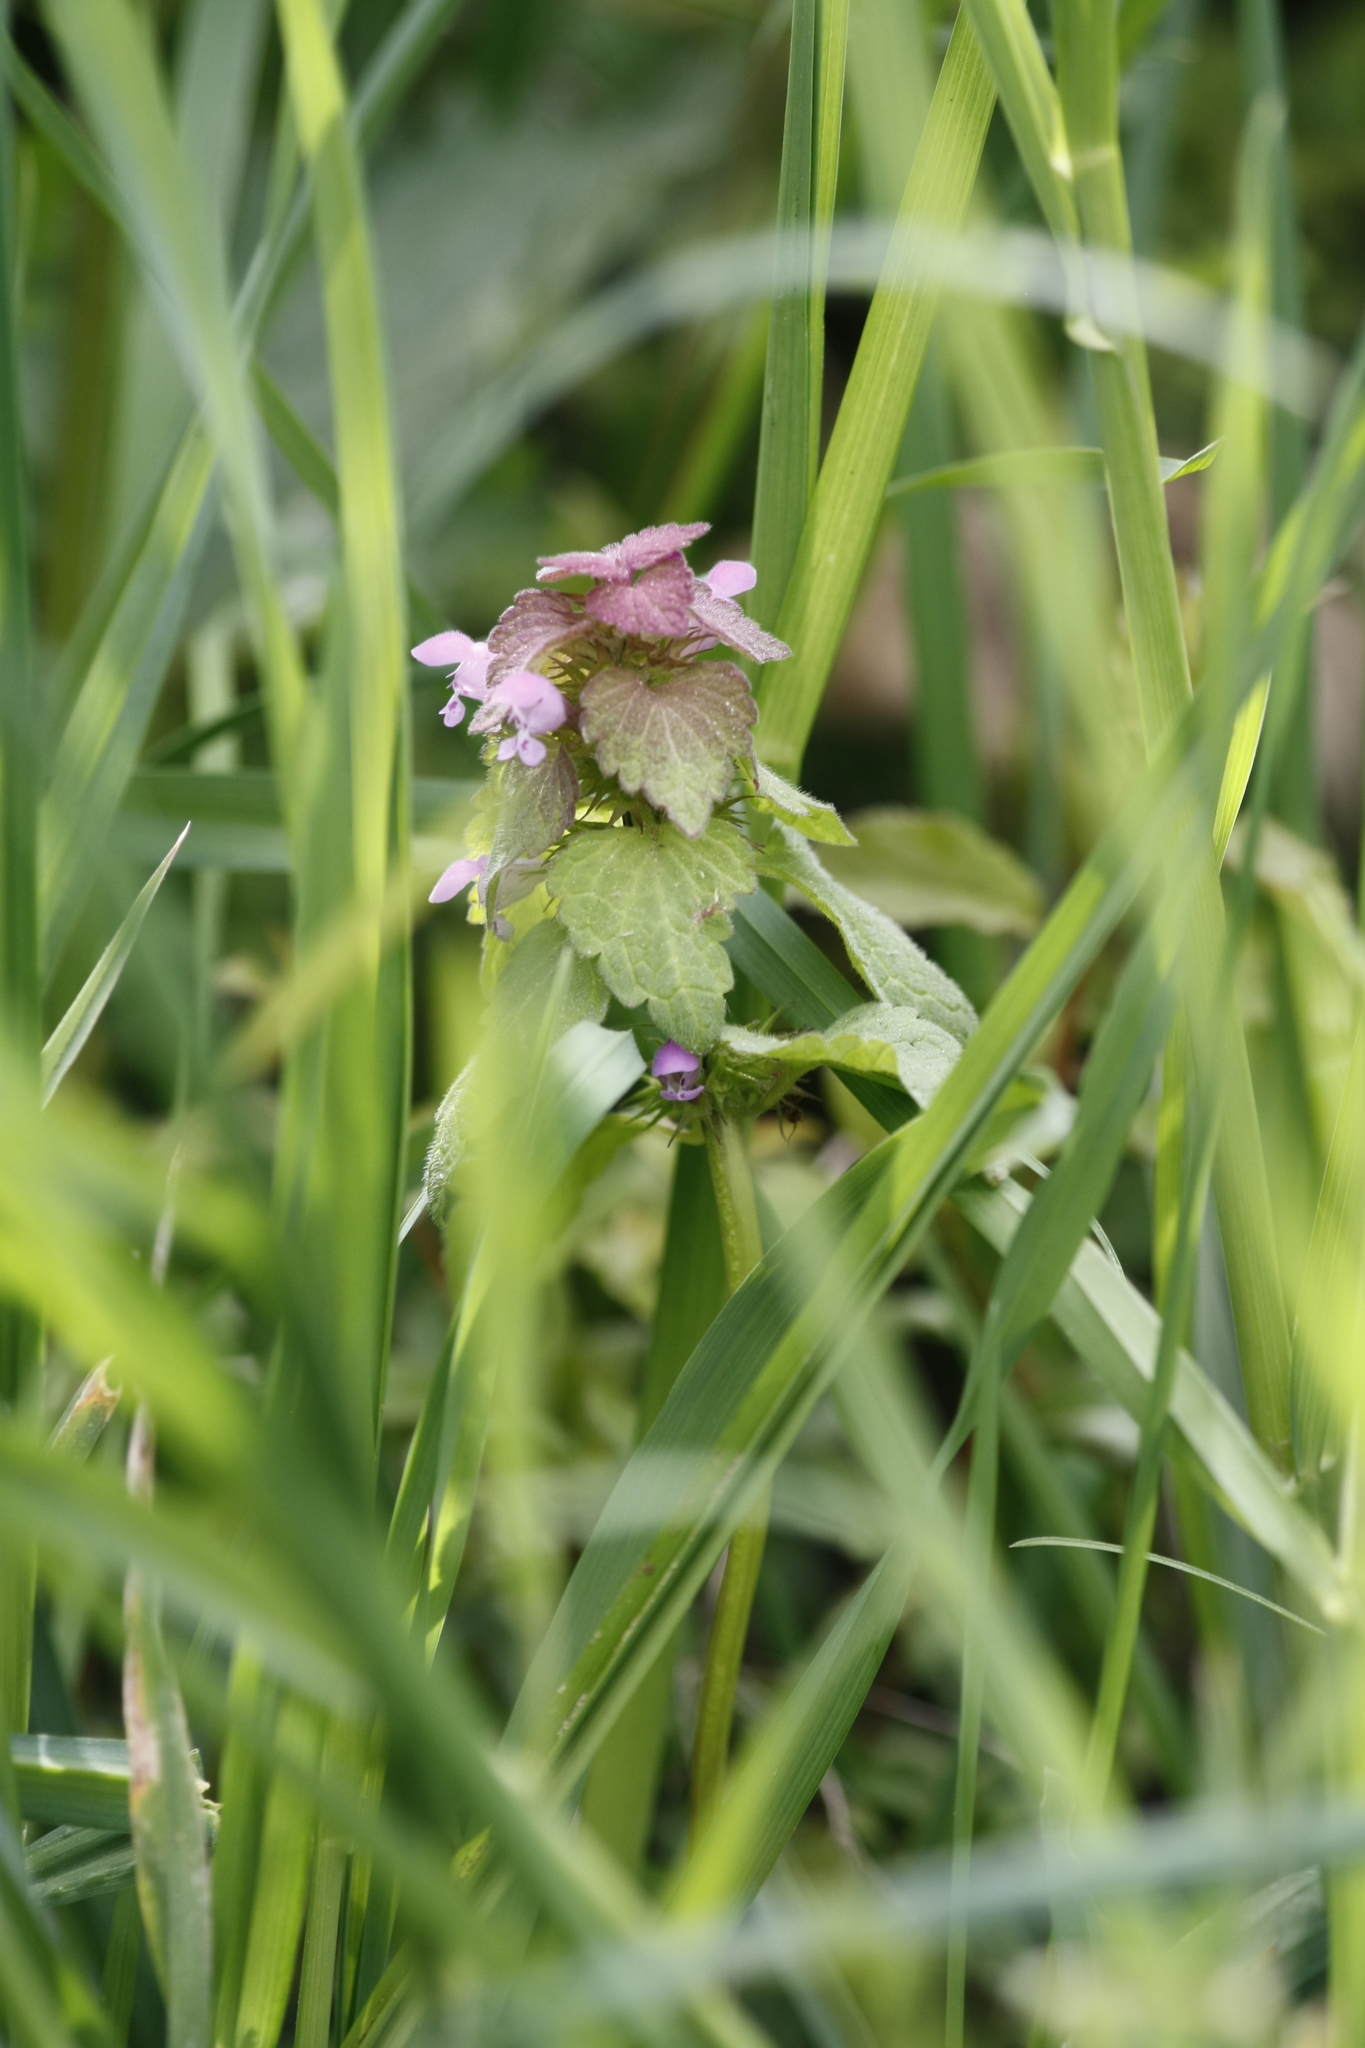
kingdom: Plantae
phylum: Tracheophyta
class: Magnoliopsida
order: Lamiales
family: Lamiaceae
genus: Lamium
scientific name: Lamium purpureum
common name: Red dead-nettle
